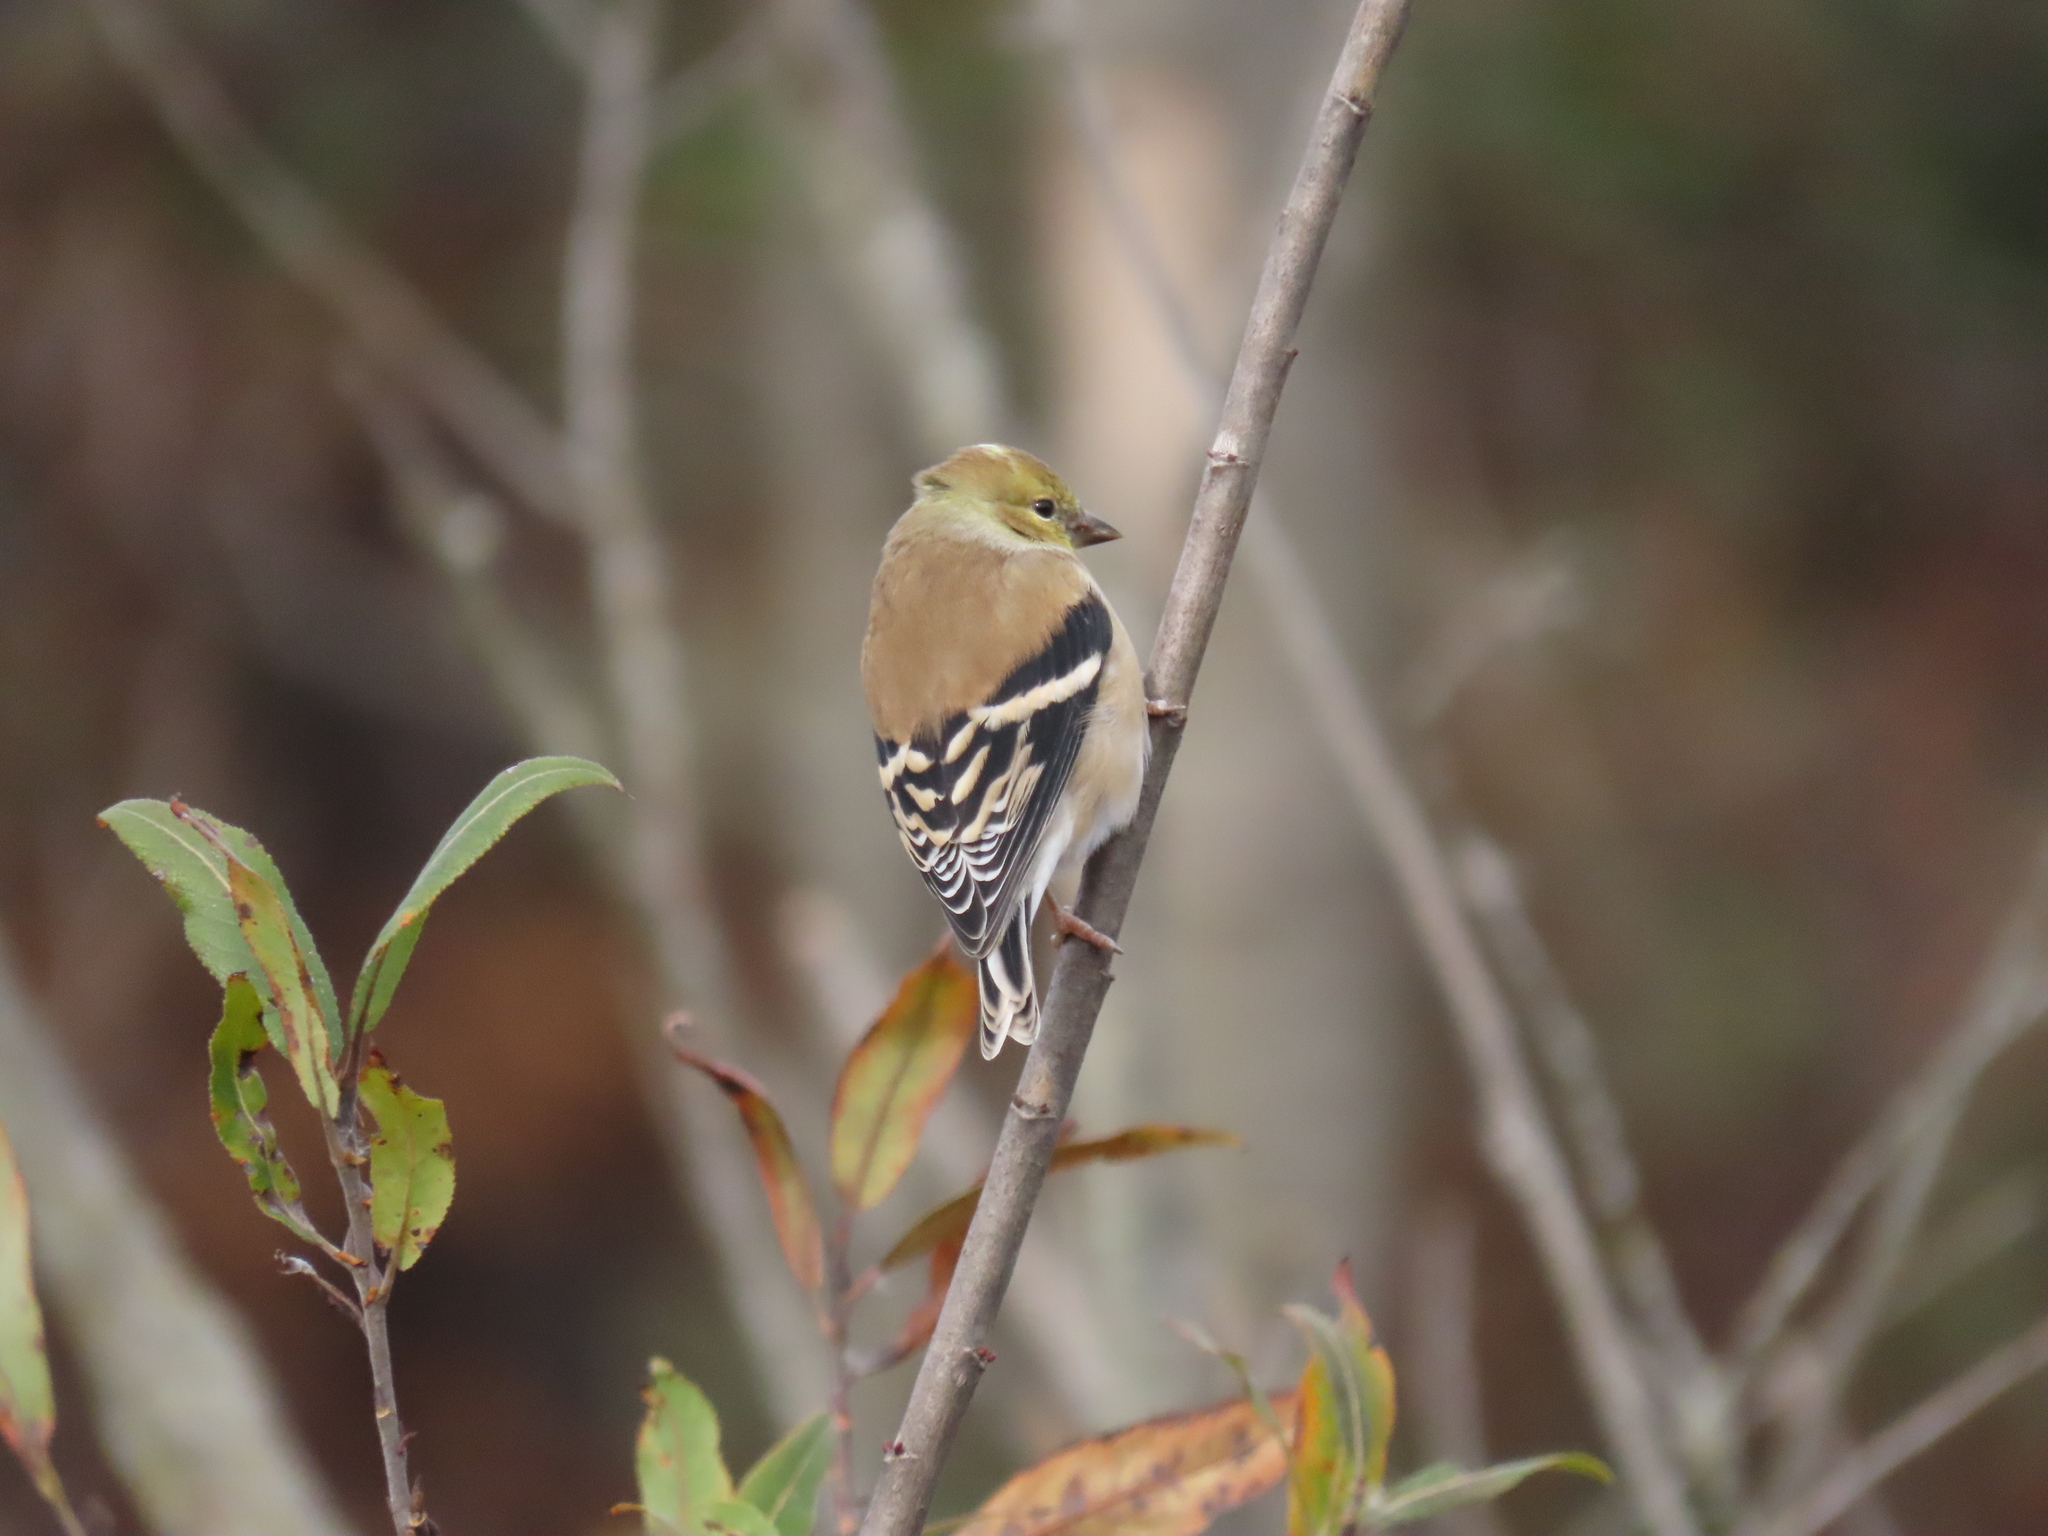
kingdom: Animalia
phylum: Chordata
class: Aves
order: Passeriformes
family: Fringillidae
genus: Spinus
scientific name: Spinus tristis
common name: American goldfinch
